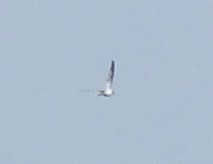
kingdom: Animalia
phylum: Chordata
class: Aves
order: Caprimulgiformes
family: Caprimulgidae
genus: Chordeiles
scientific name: Chordeiles rupestris
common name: Sand-colored nighthawk
